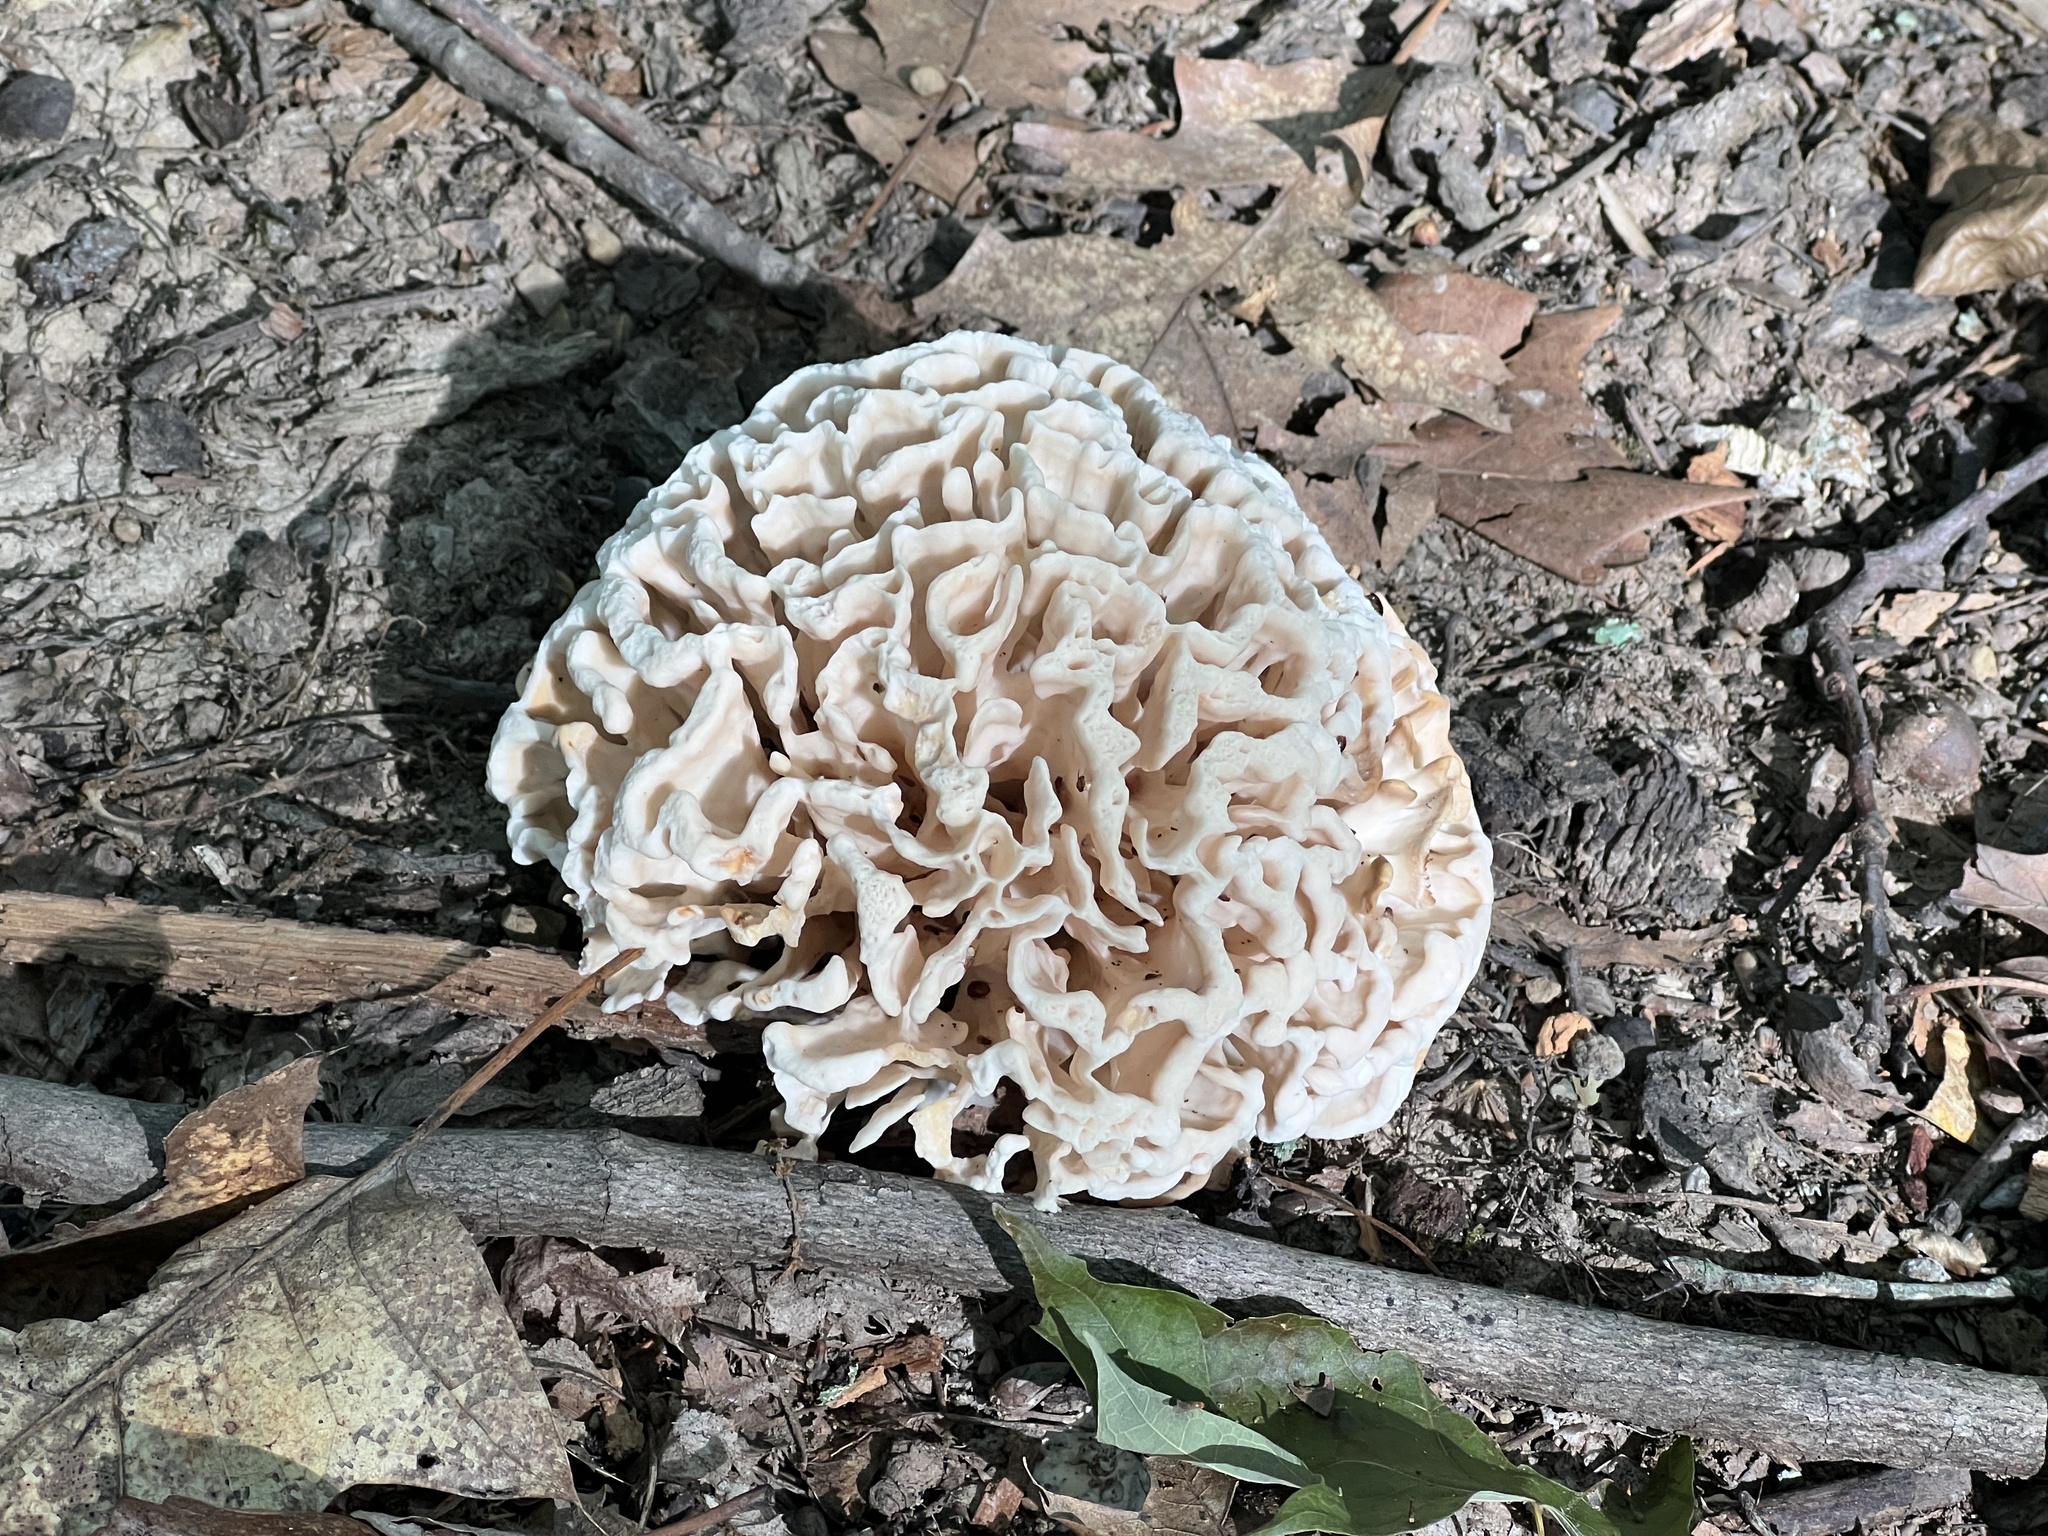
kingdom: Fungi
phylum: Basidiomycota
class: Agaricomycetes
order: Polyporales
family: Sparassidaceae
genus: Sparassis
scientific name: Sparassis spathulata
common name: Eastern cauliflower mushroom
